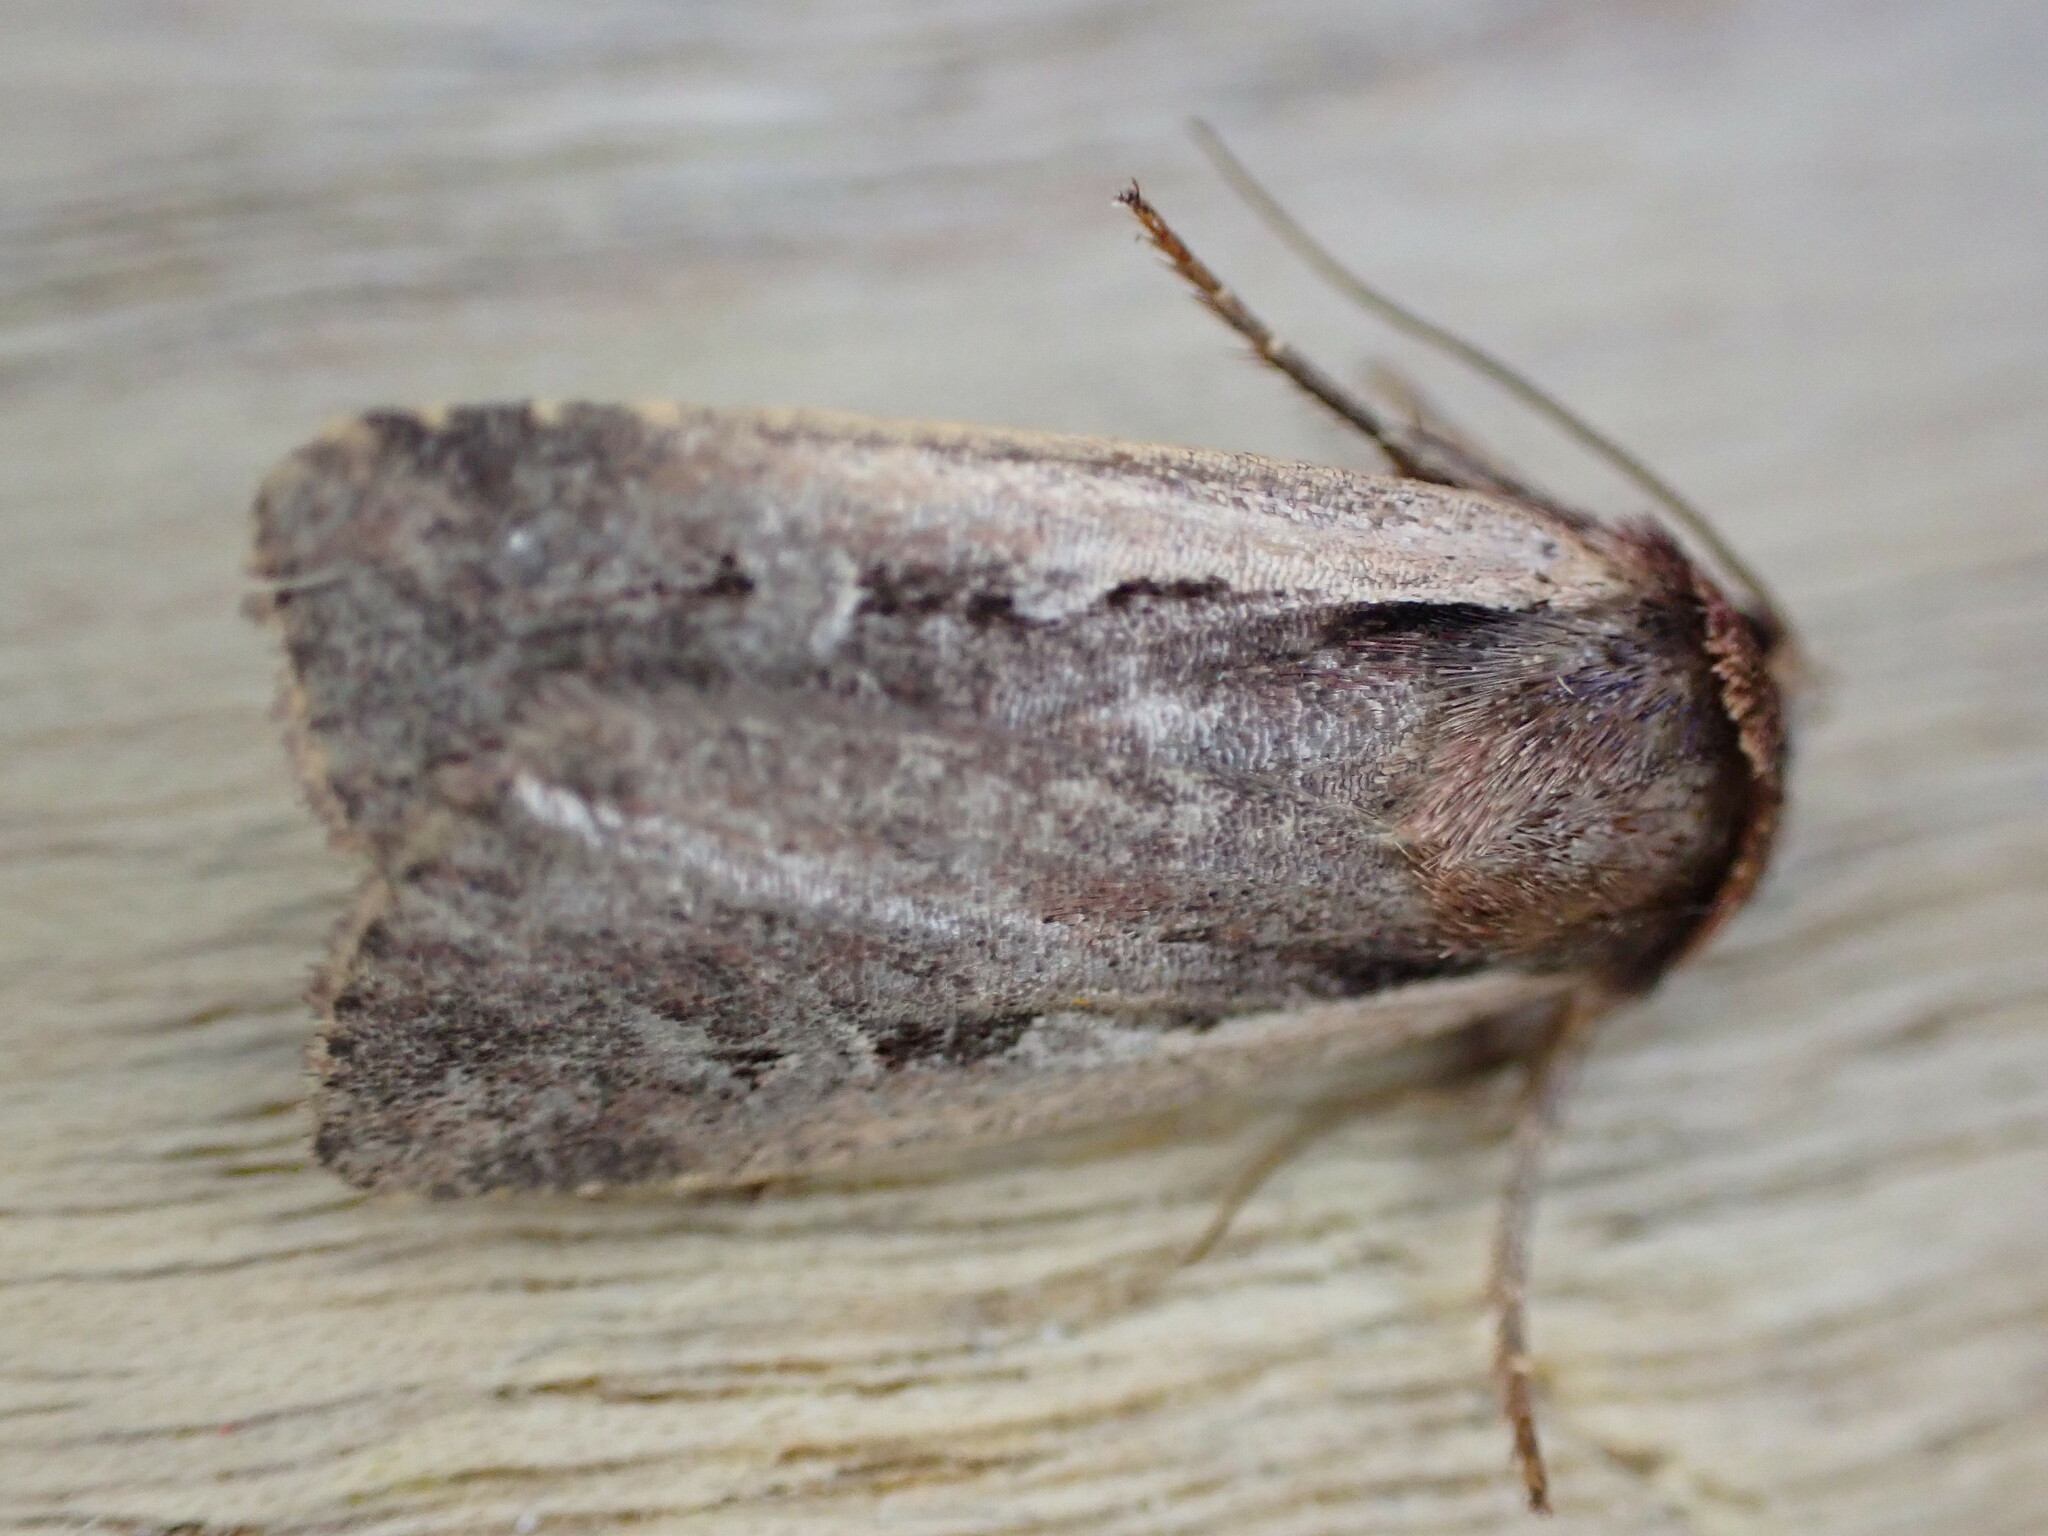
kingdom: Animalia
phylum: Arthropoda
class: Insecta
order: Lepidoptera
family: Noctuidae
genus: Ochropleura
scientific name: Ochropleura plecta
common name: Flame shoulder
